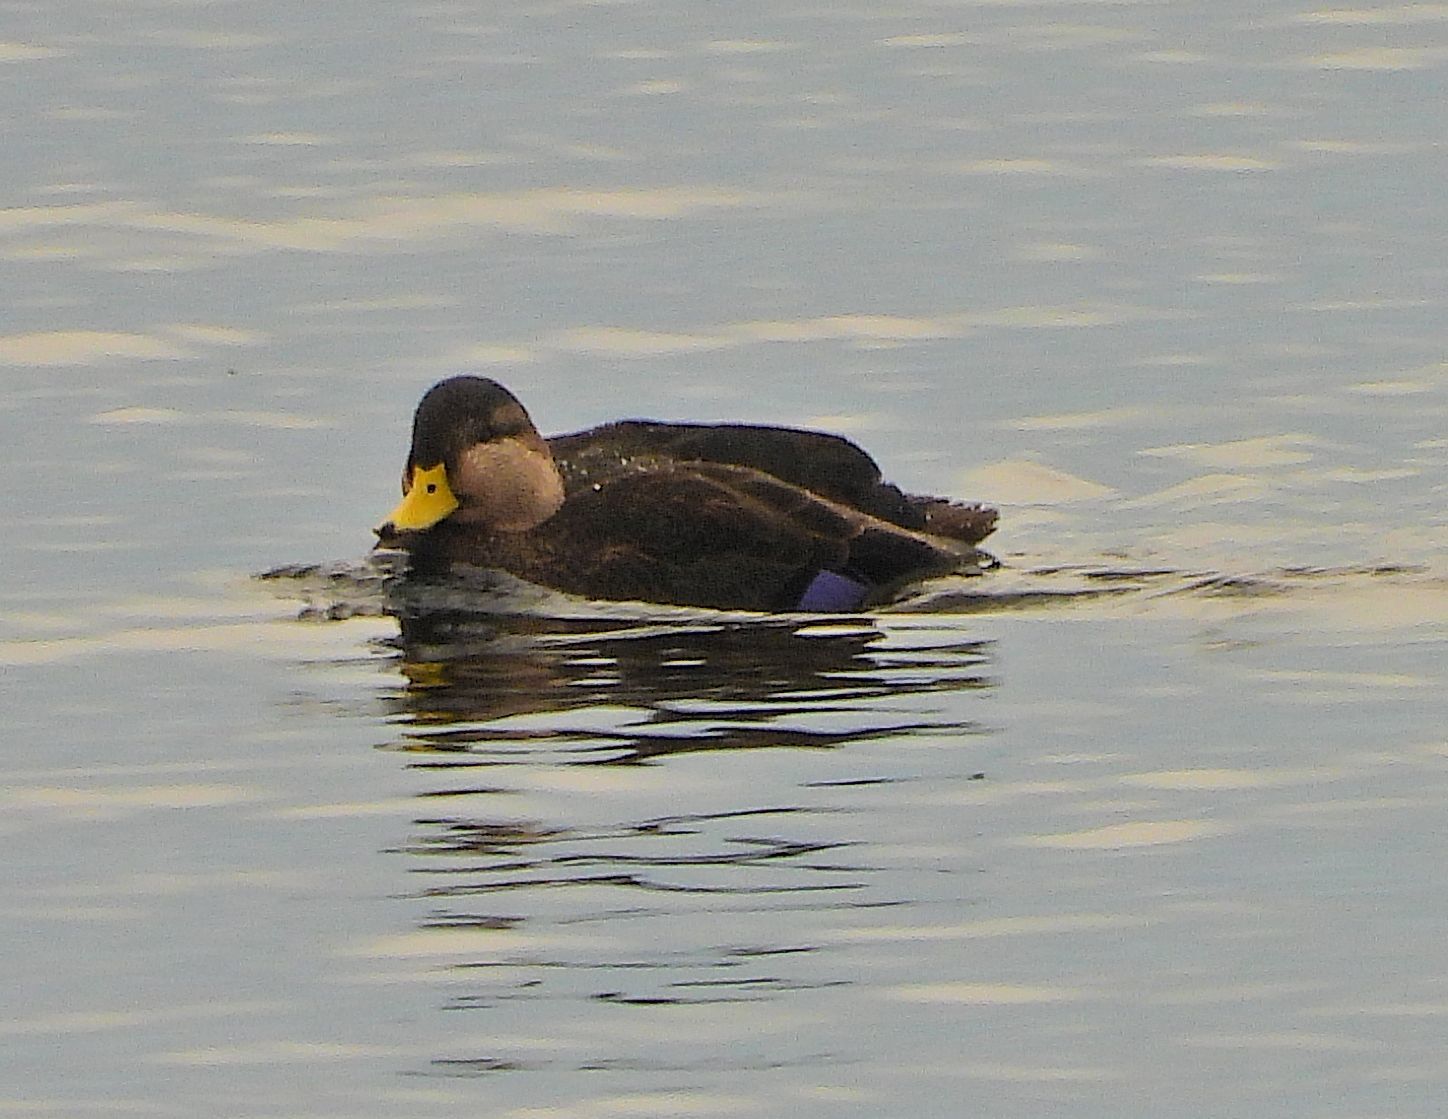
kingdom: Animalia
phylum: Chordata
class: Aves
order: Anseriformes
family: Anatidae
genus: Anas
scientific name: Anas rubripes
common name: American black duck
